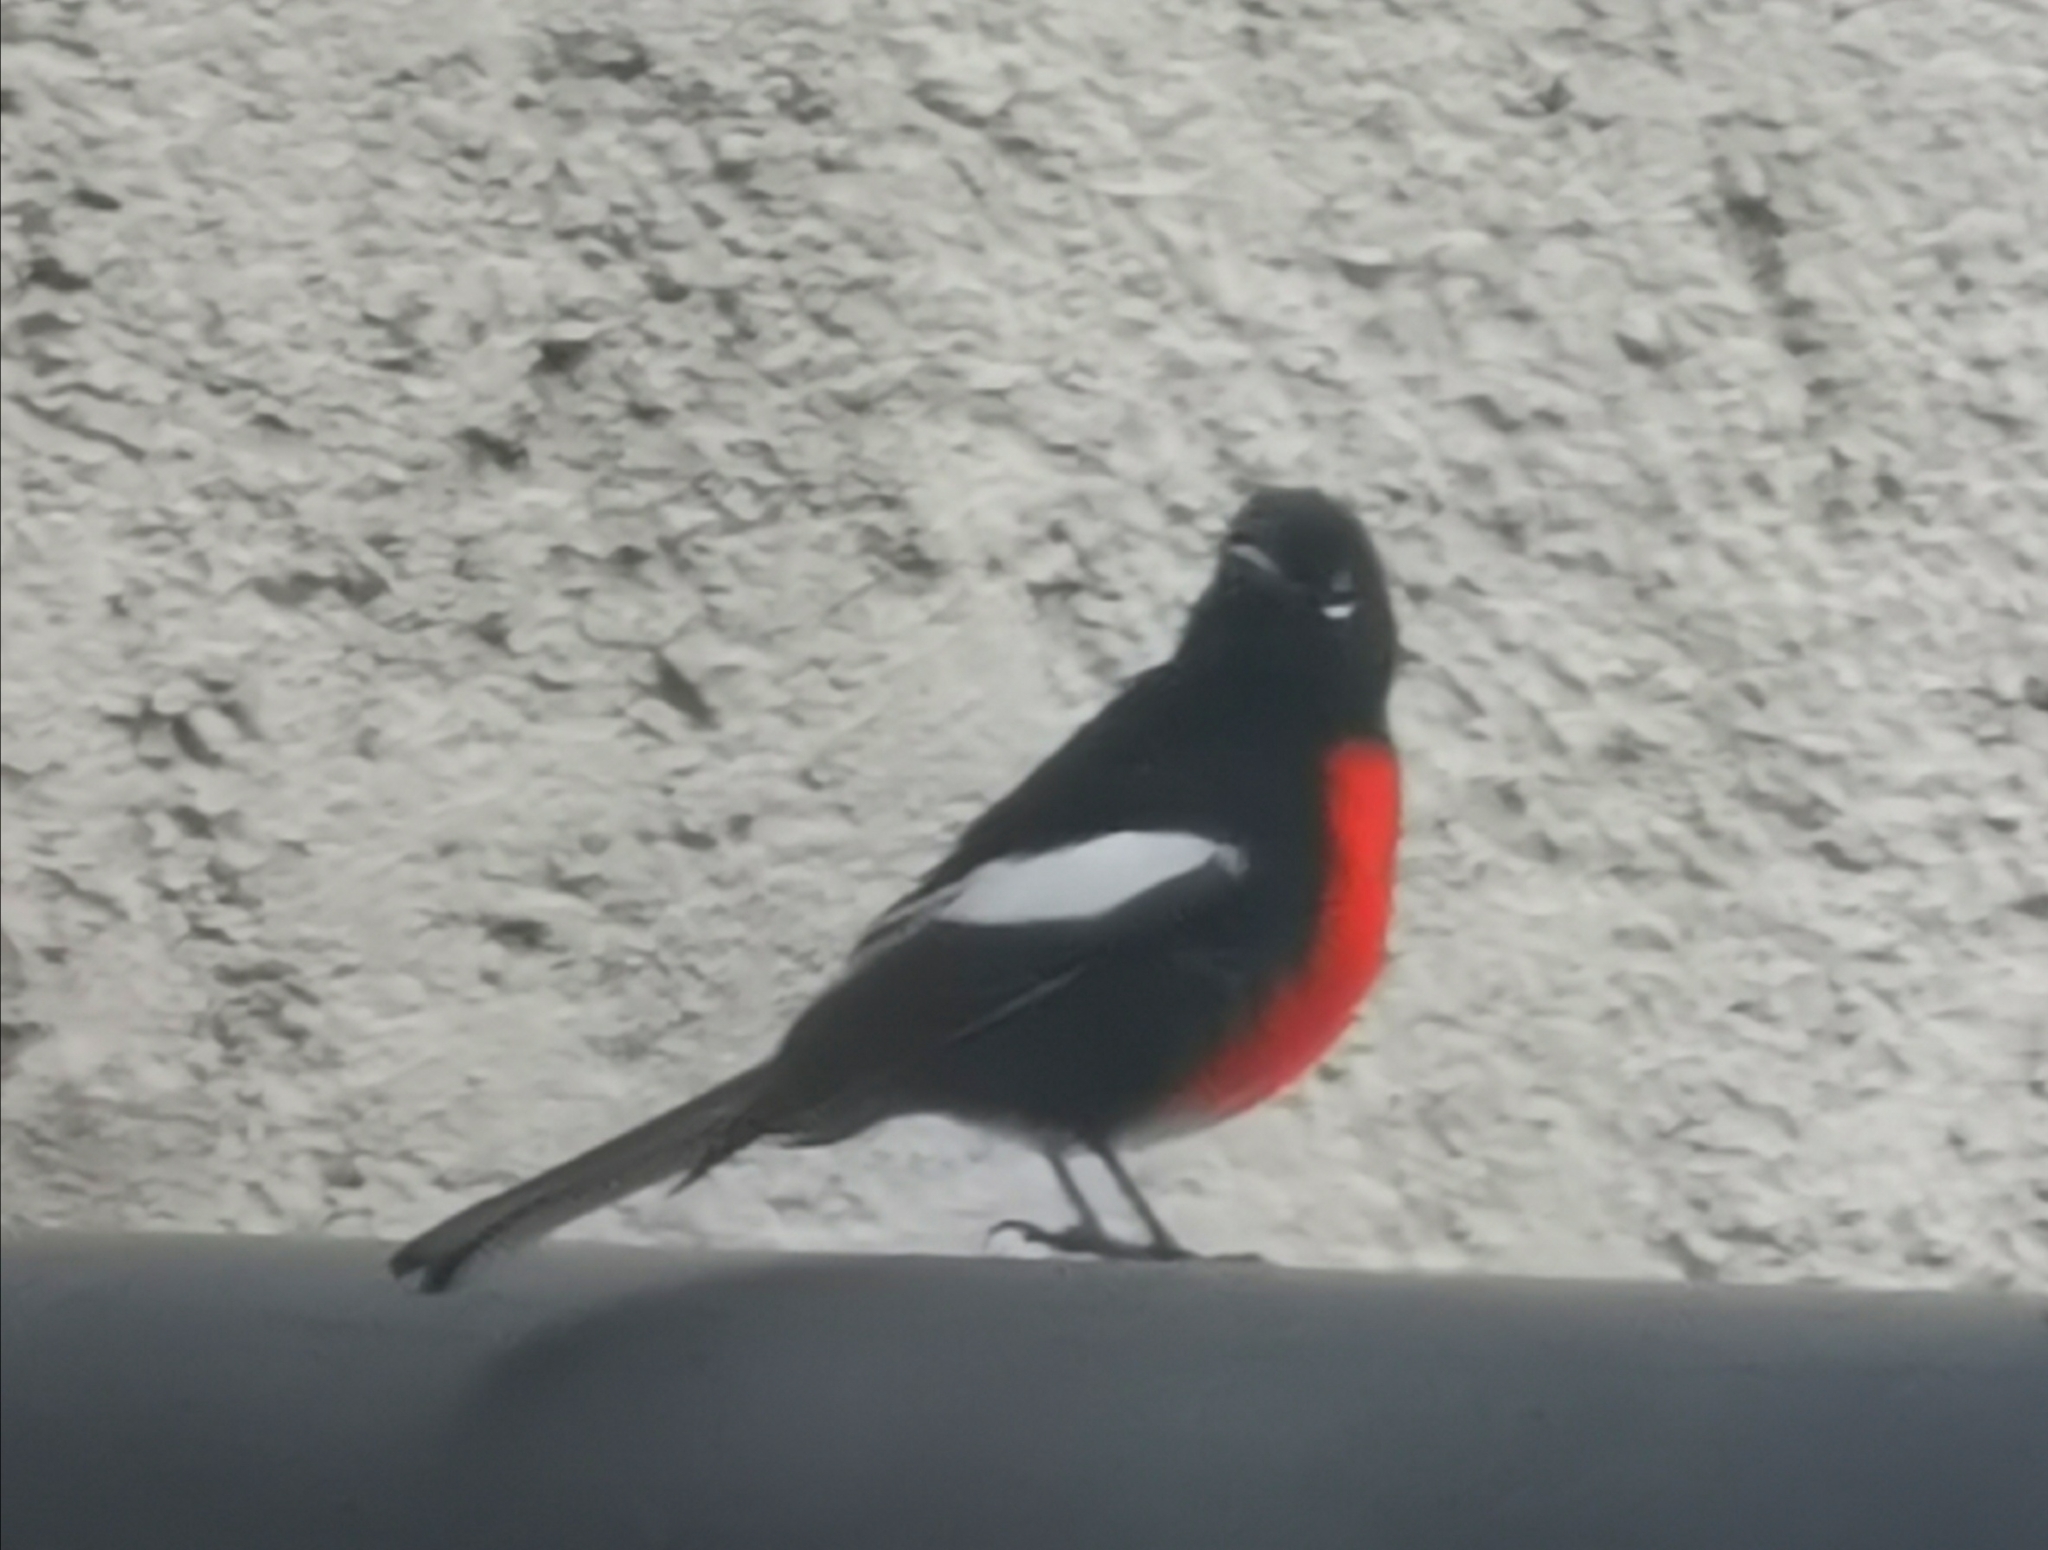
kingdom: Animalia
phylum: Chordata
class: Aves
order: Passeriformes
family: Parulidae
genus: Myioborus
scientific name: Myioborus pictus
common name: Painted whitestart
